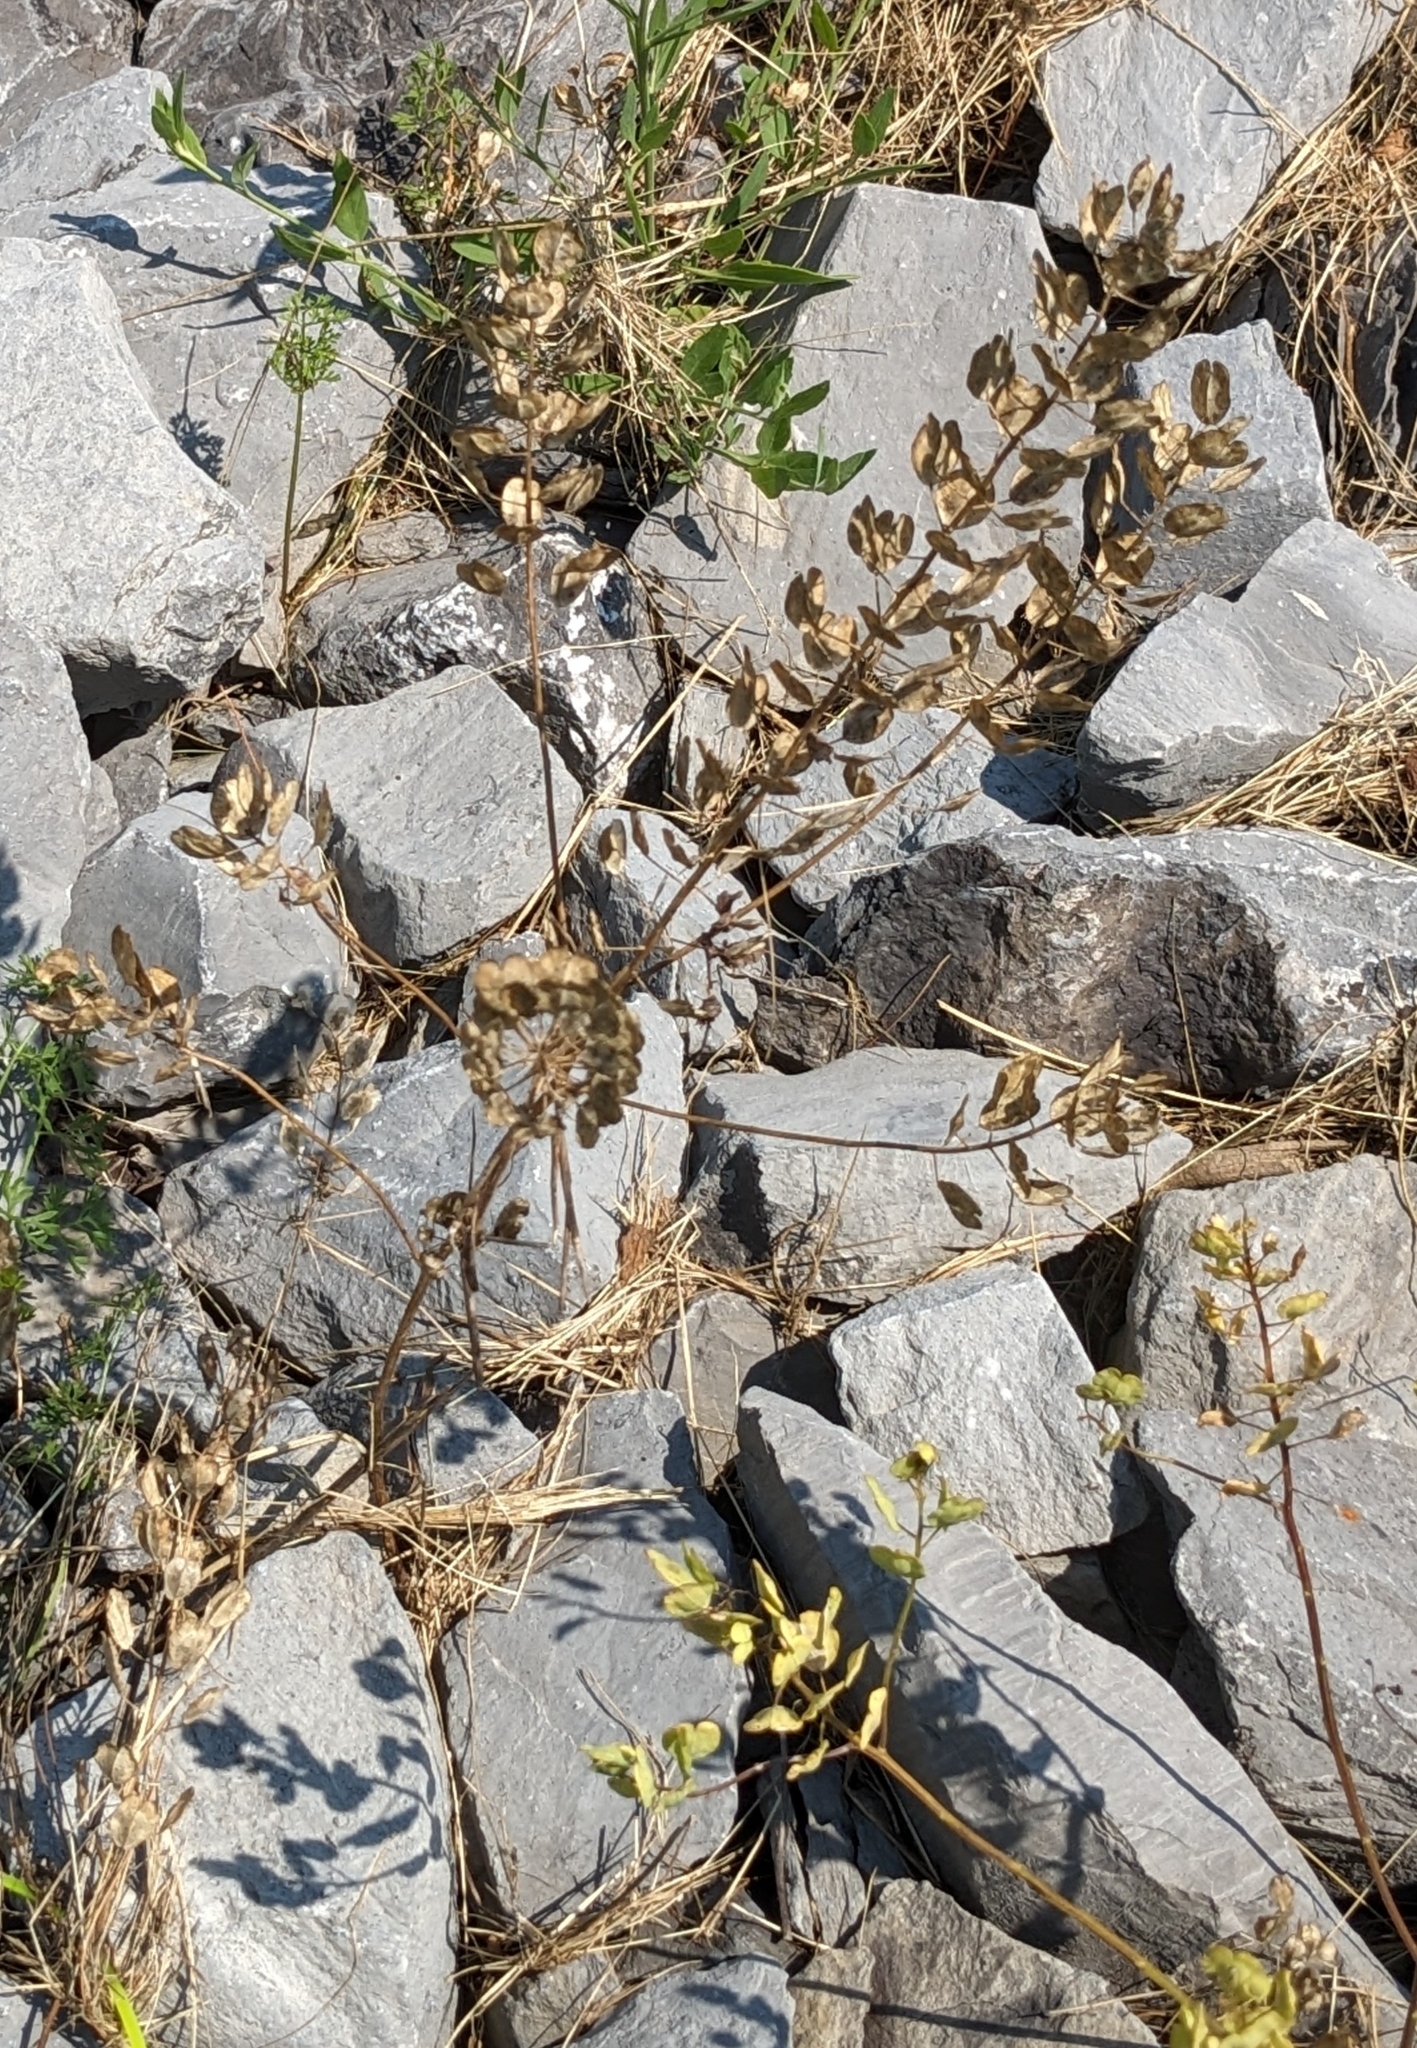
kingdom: Plantae
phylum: Tracheophyta
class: Magnoliopsida
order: Brassicales
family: Brassicaceae
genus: Thlaspi
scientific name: Thlaspi arvense
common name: Field pennycress
